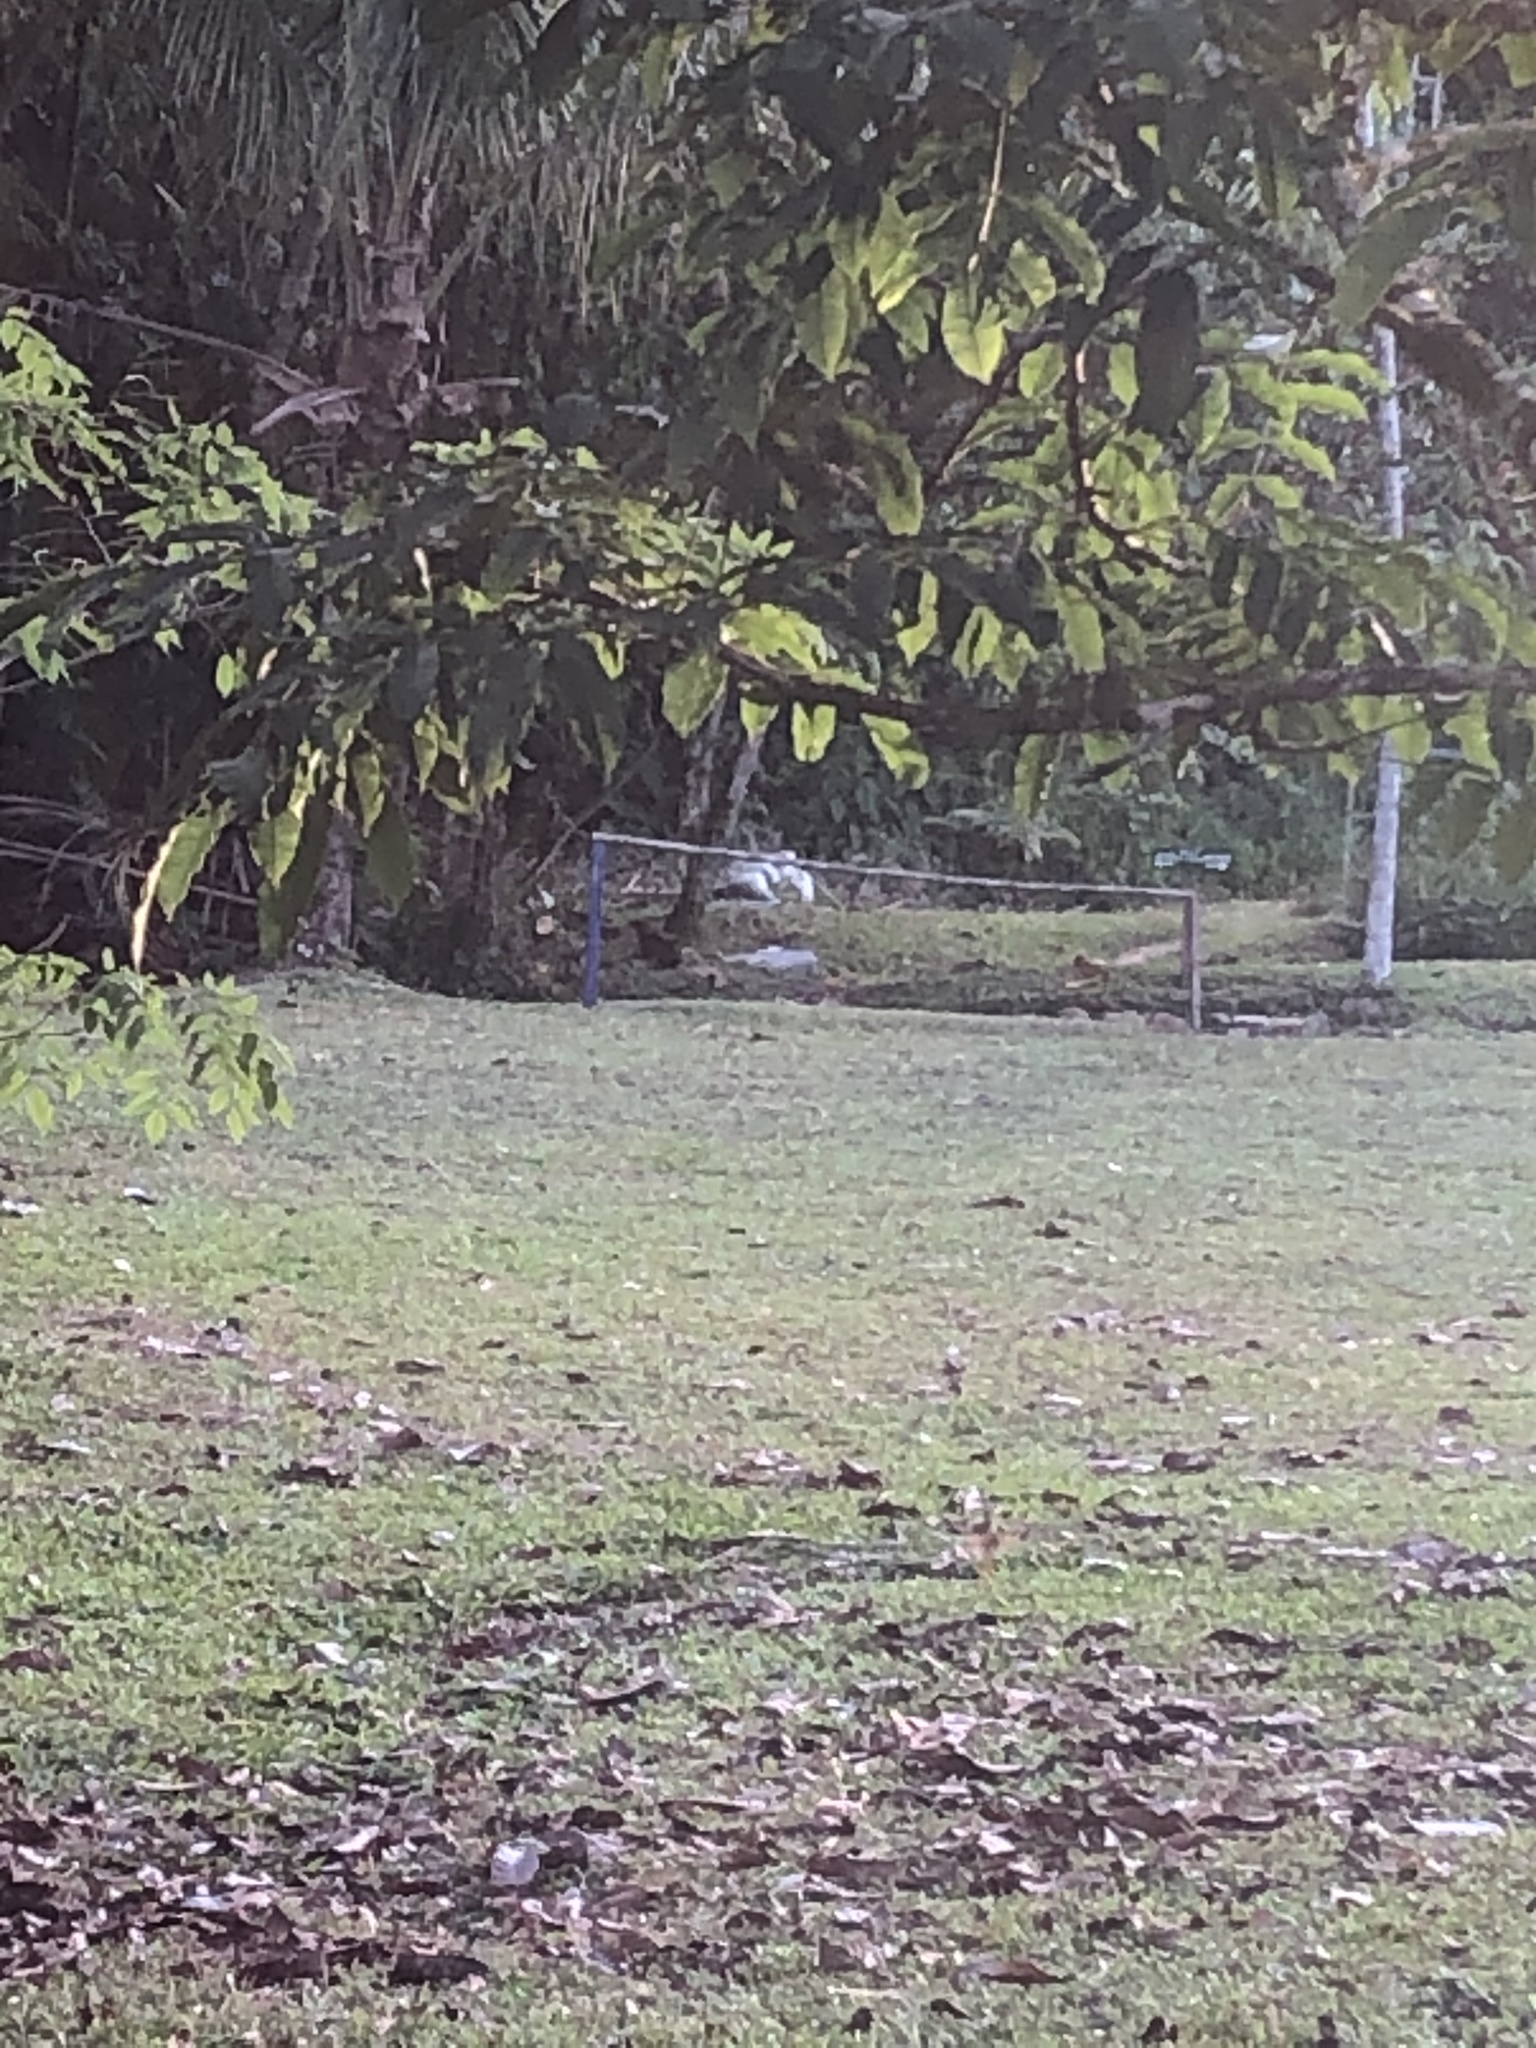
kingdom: Animalia
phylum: Chordata
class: Mammalia
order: Rodentia
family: Dasyproctidae
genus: Dasyprocta
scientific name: Dasyprocta variegata
